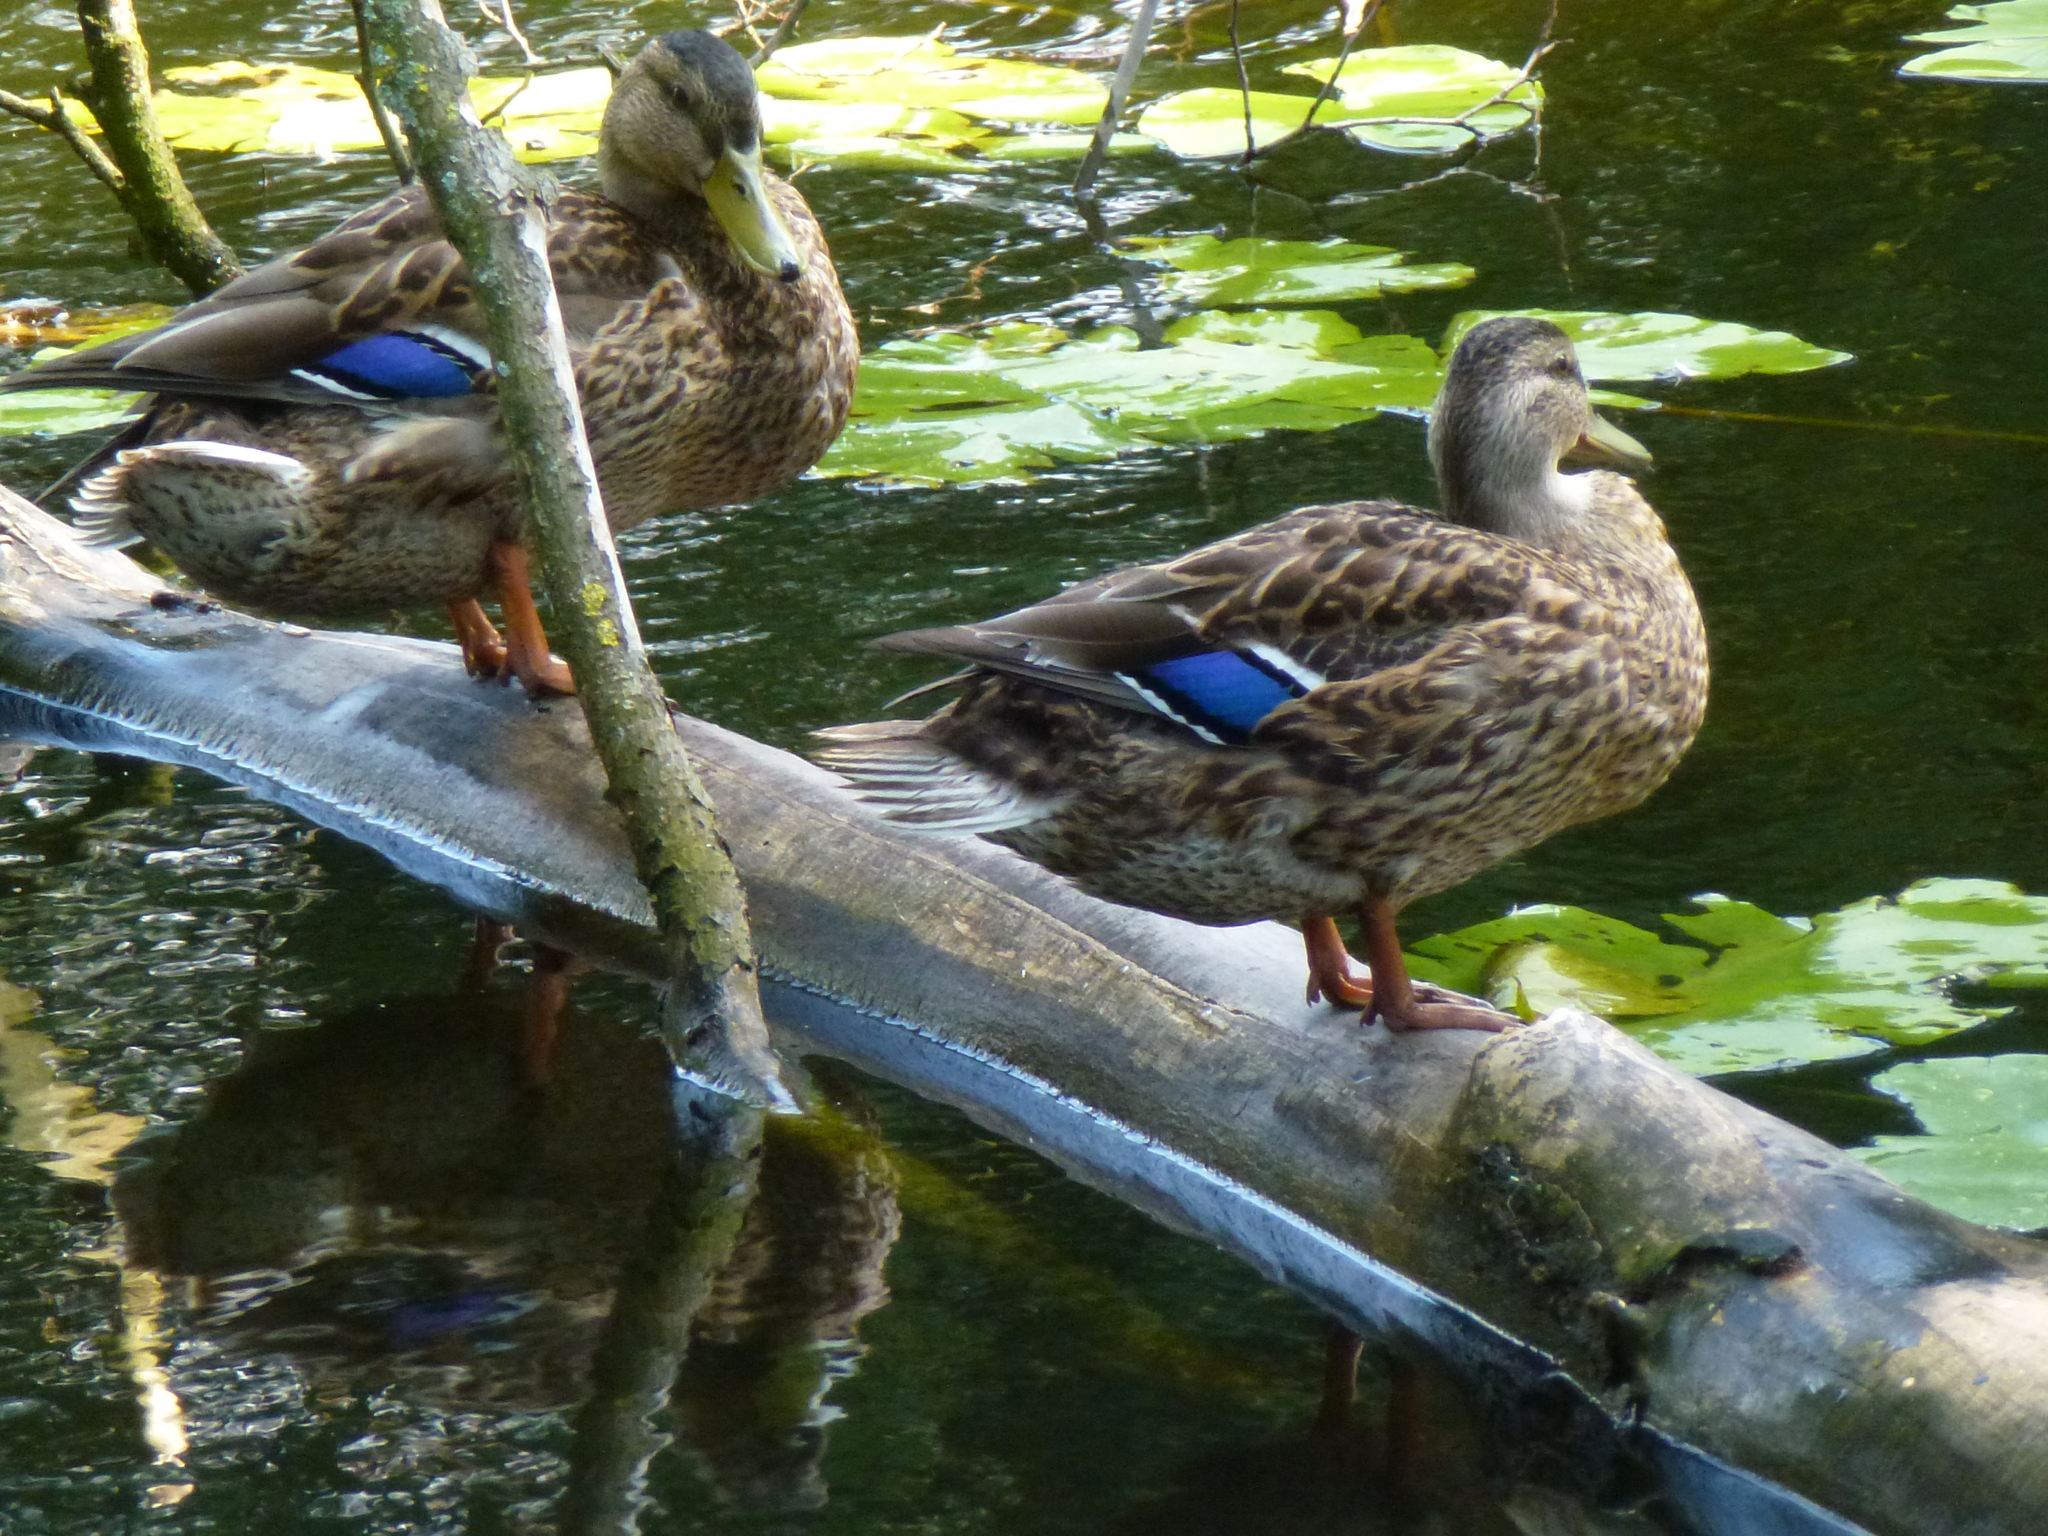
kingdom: Animalia
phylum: Chordata
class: Aves
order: Anseriformes
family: Anatidae
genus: Anas
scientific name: Anas platyrhynchos
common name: Mallard
